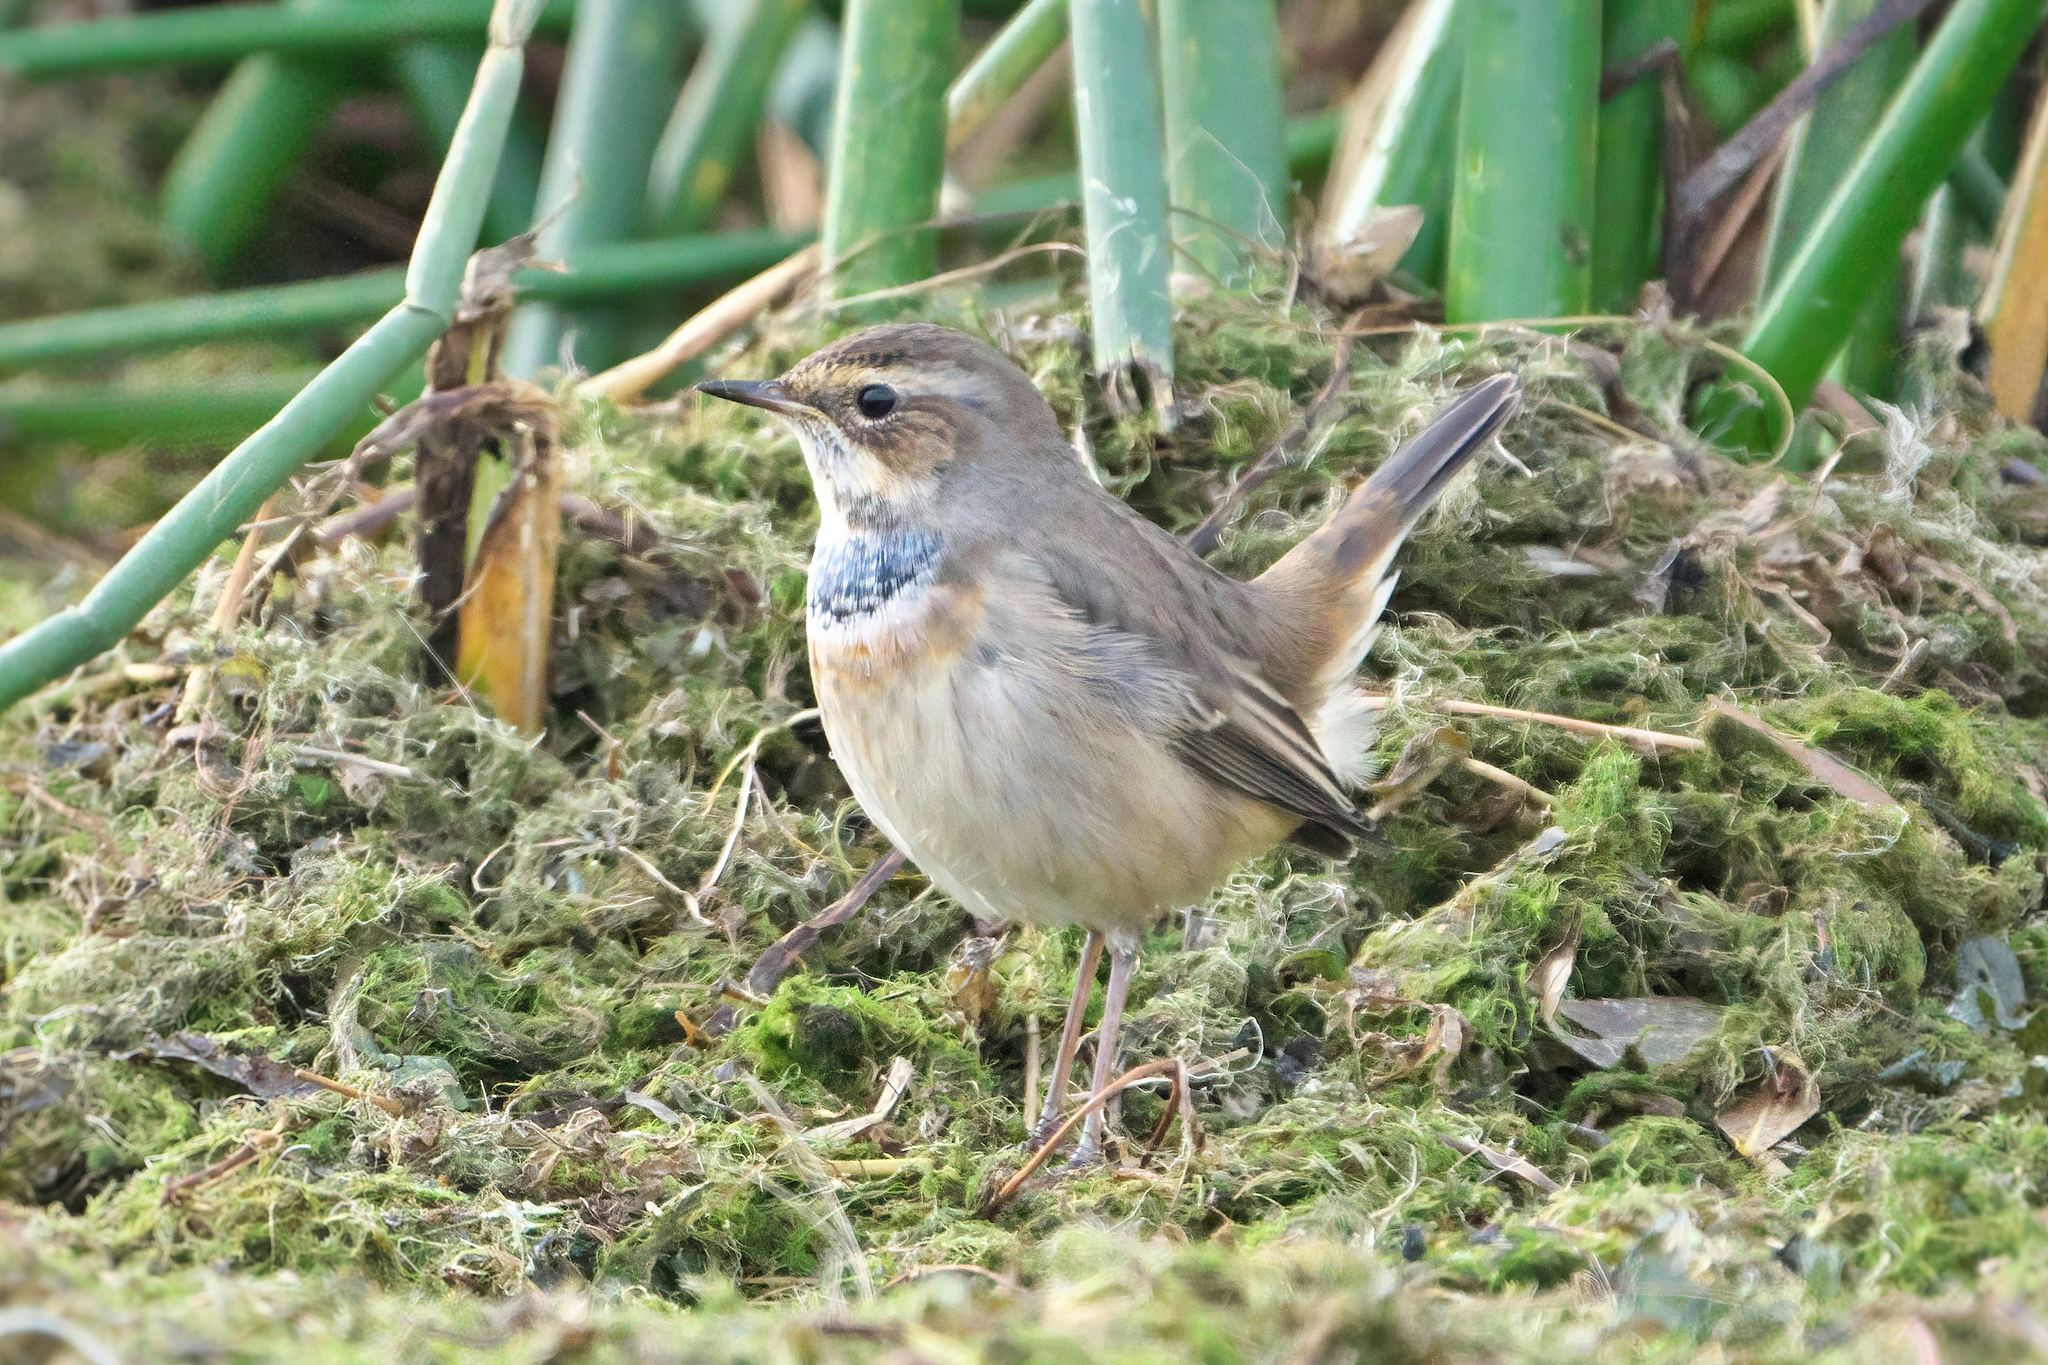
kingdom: Animalia
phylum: Chordata
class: Aves
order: Passeriformes
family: Muscicapidae
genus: Luscinia
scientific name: Luscinia svecica
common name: Bluethroat
